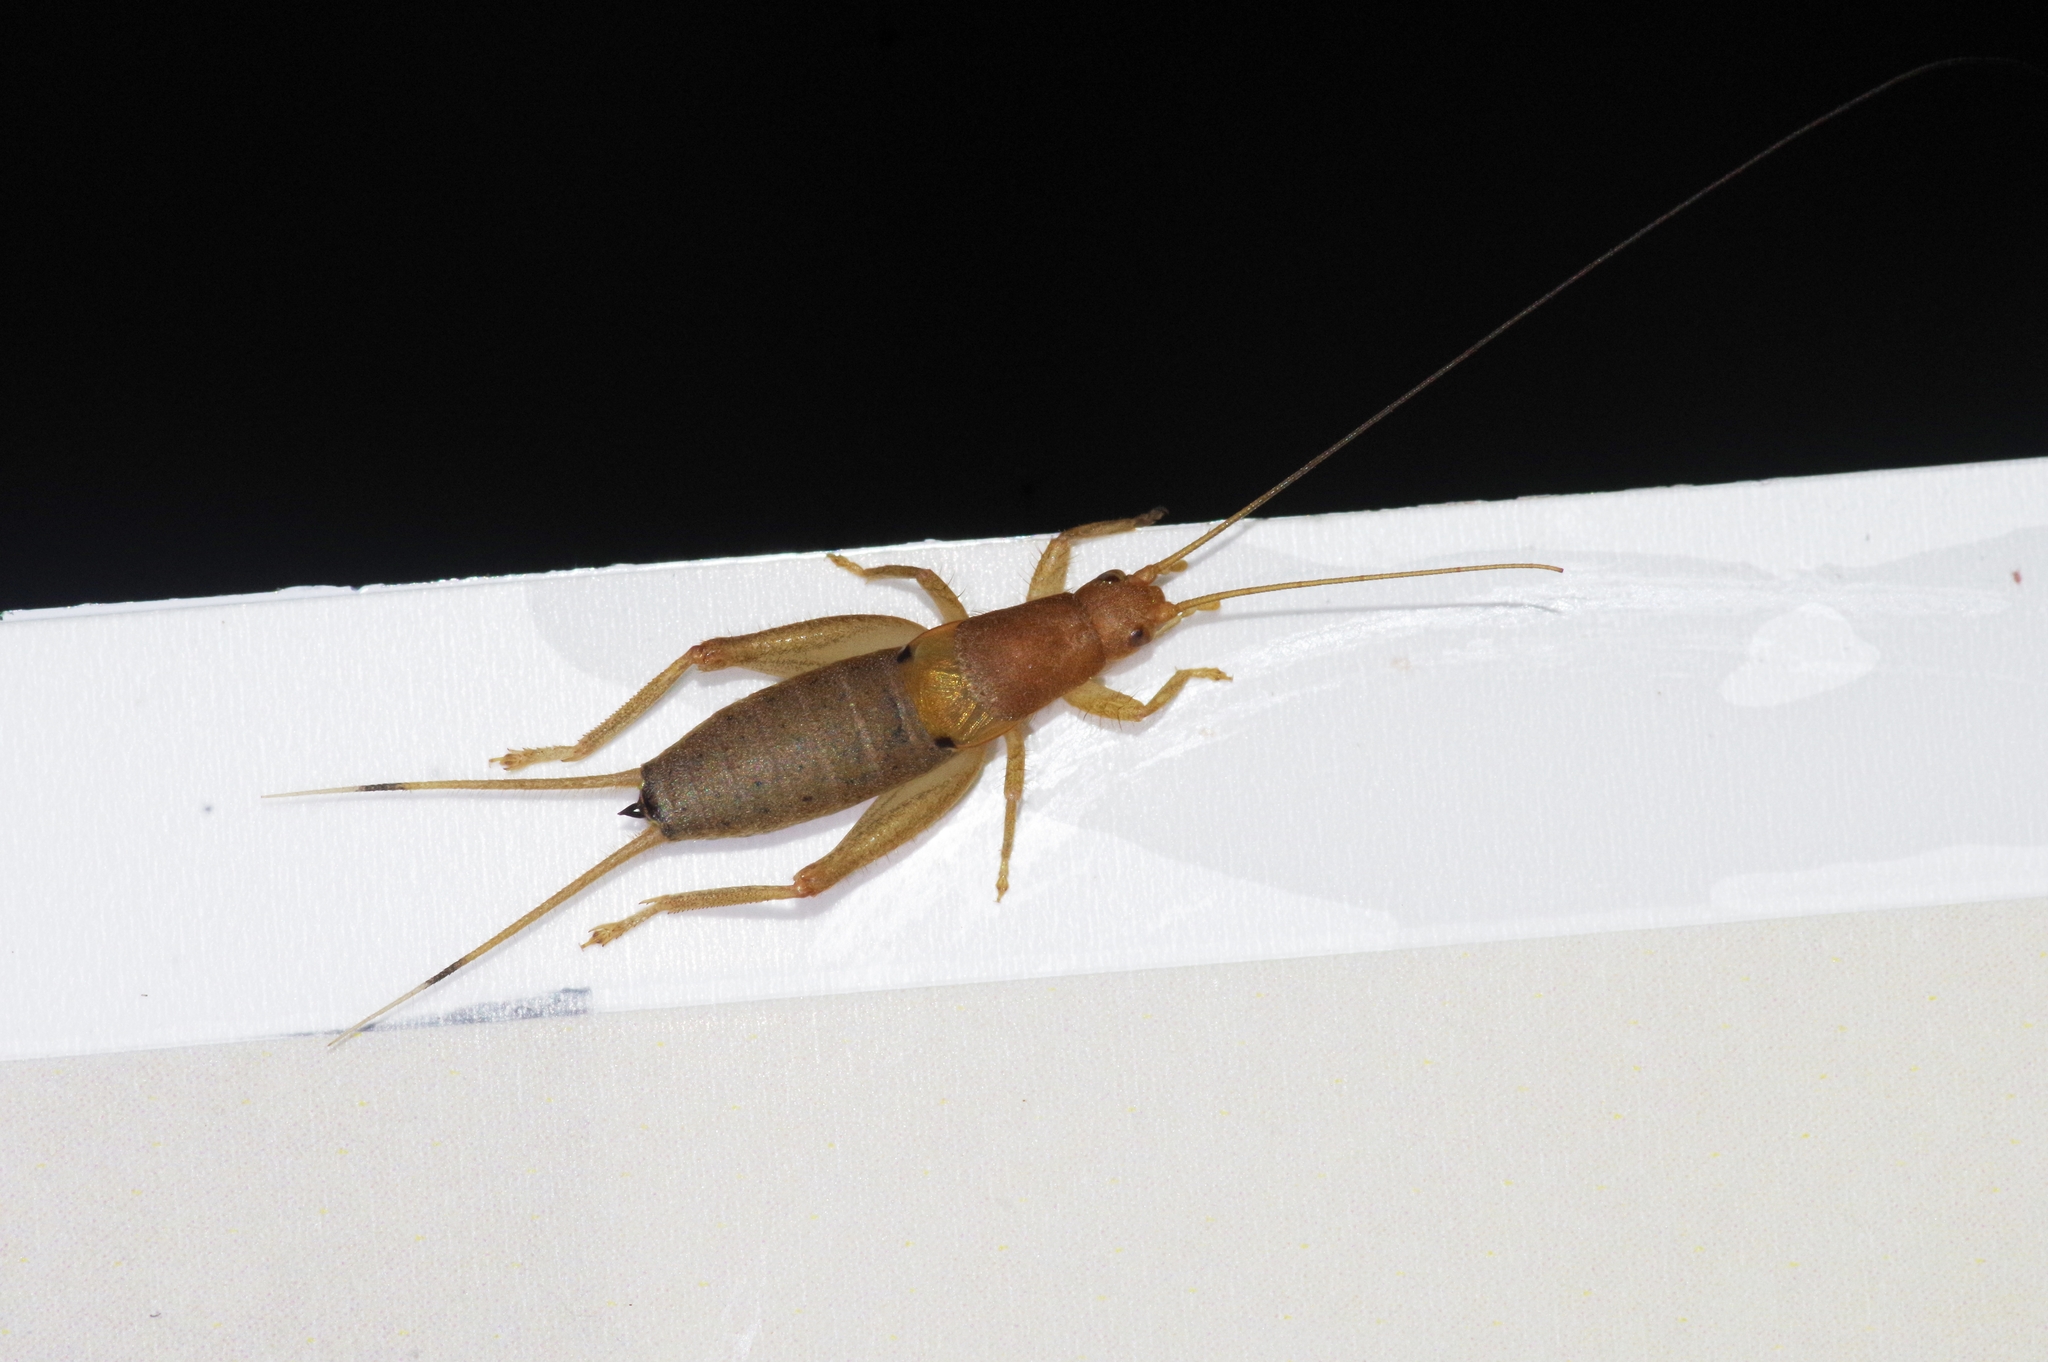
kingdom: Animalia
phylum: Arthropoda
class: Insecta
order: Orthoptera
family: Mogoplistidae
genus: Ornebius
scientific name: Ornebius bimaculatus
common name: Cricket
